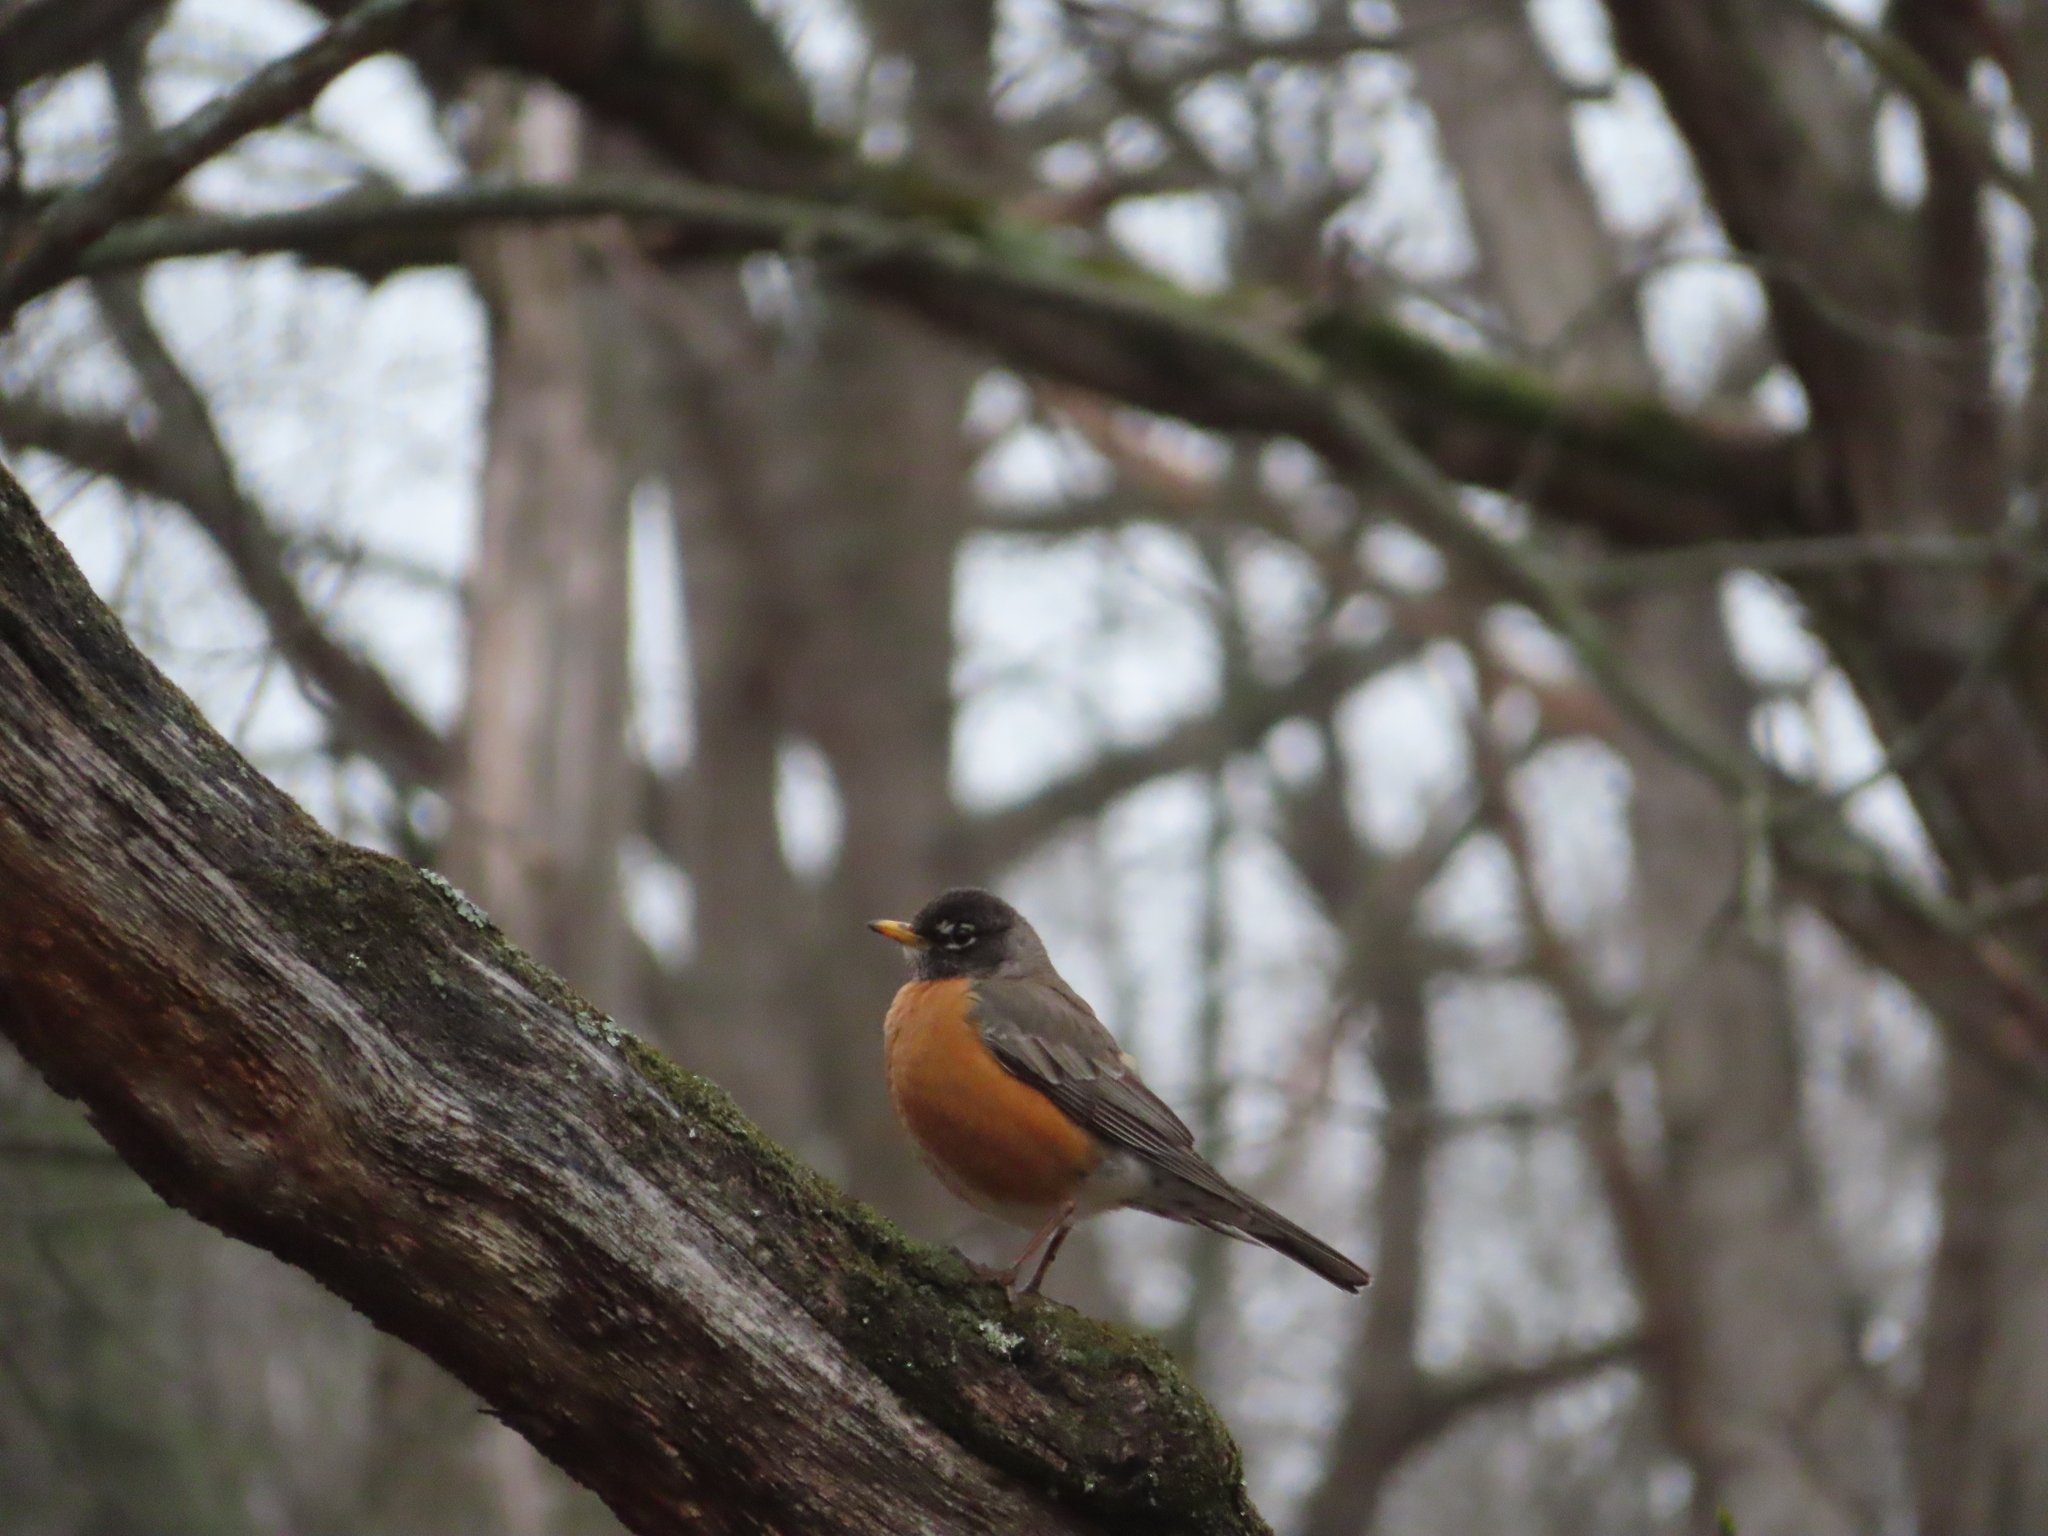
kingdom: Animalia
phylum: Chordata
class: Aves
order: Passeriformes
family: Turdidae
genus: Turdus
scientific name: Turdus migratorius
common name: American robin
